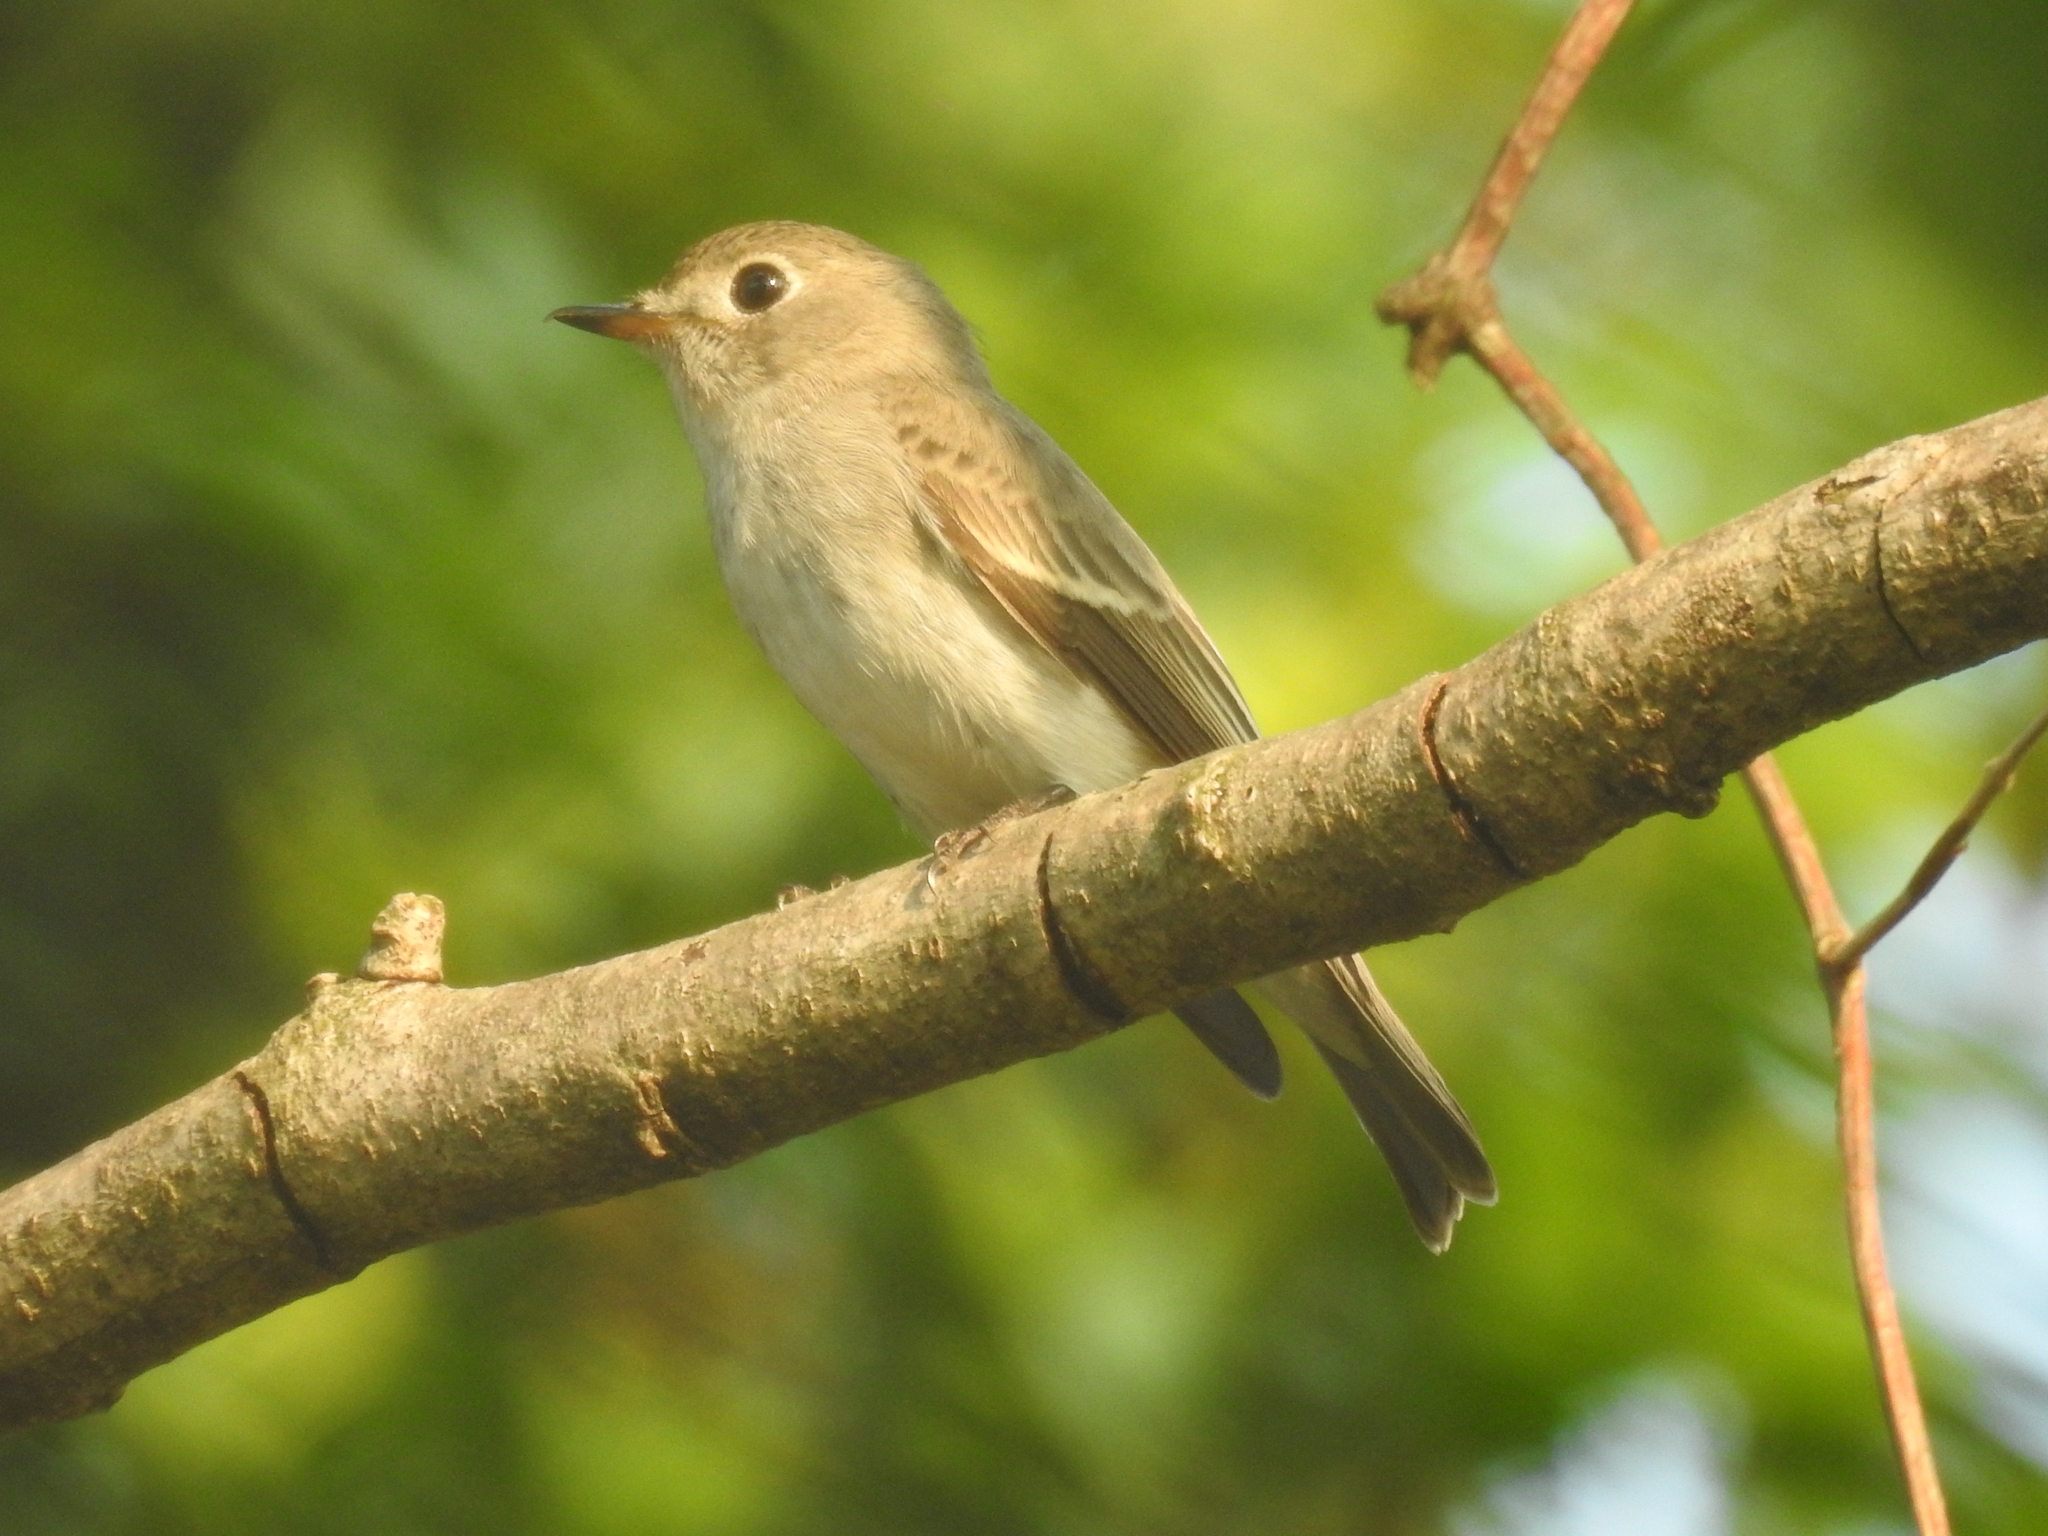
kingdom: Animalia
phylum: Chordata
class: Aves
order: Passeriformes
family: Muscicapidae
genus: Muscicapa
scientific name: Muscicapa latirostris
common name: Asian brown flycatcher
